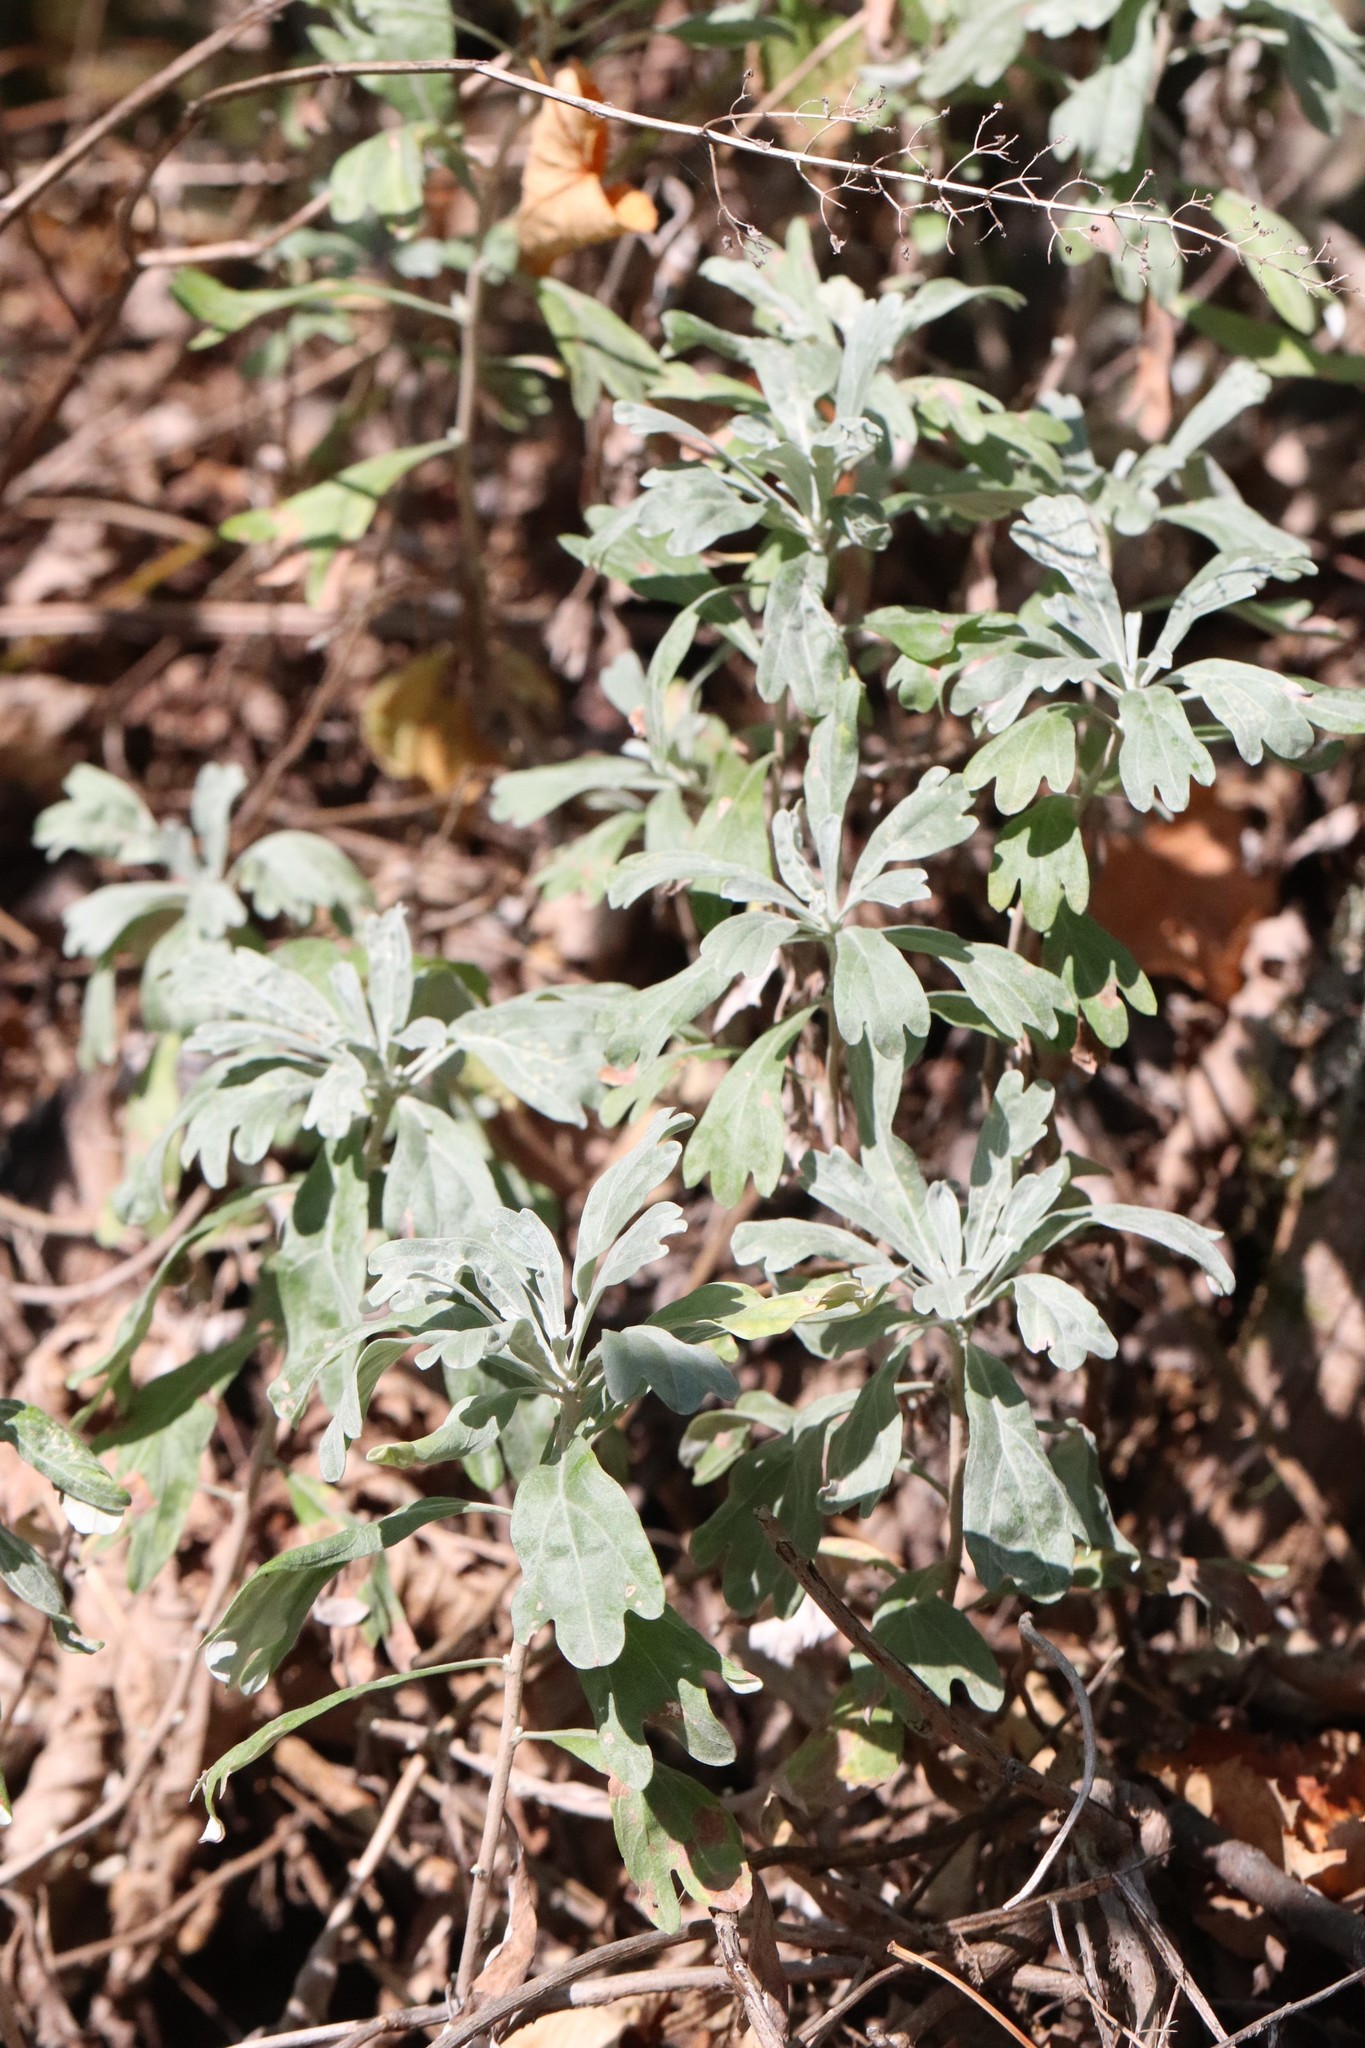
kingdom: Plantae
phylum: Tracheophyta
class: Magnoliopsida
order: Asterales
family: Asteraceae
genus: Artemisia
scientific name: Artemisia lagocephala
